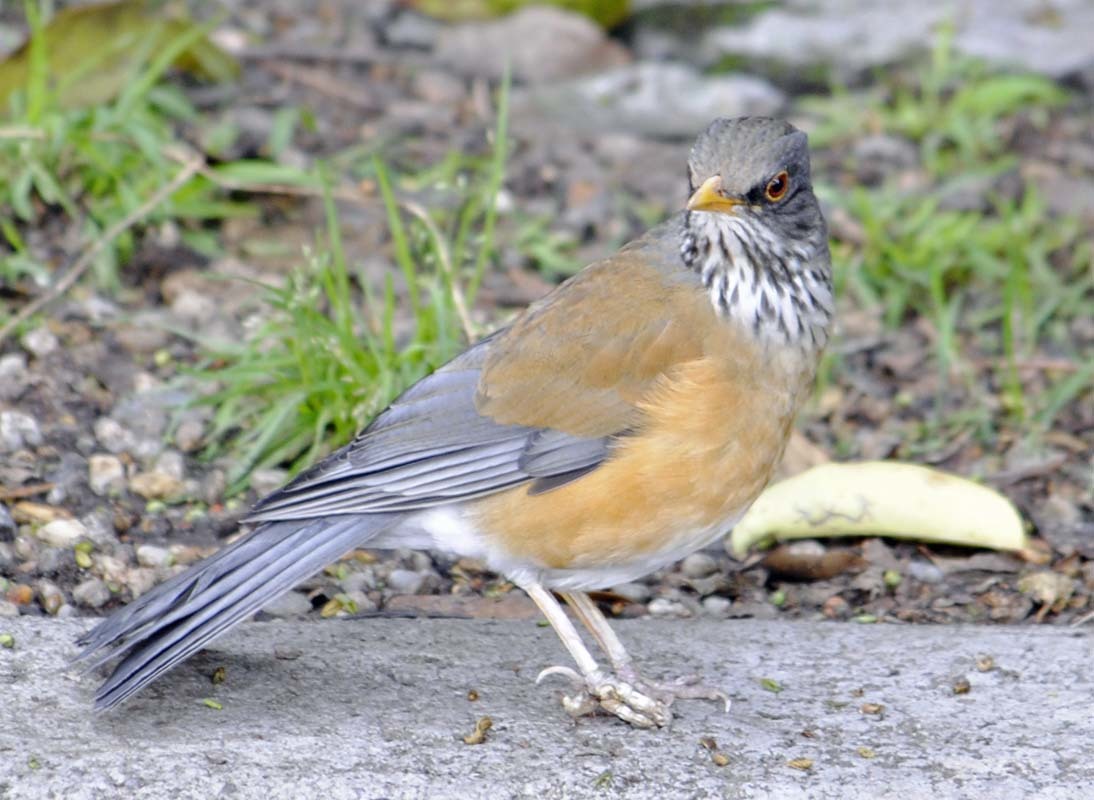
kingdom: Animalia
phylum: Chordata
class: Aves
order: Passeriformes
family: Turdidae
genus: Turdus
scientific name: Turdus rufopalliatus
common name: Rufous-backed robin
